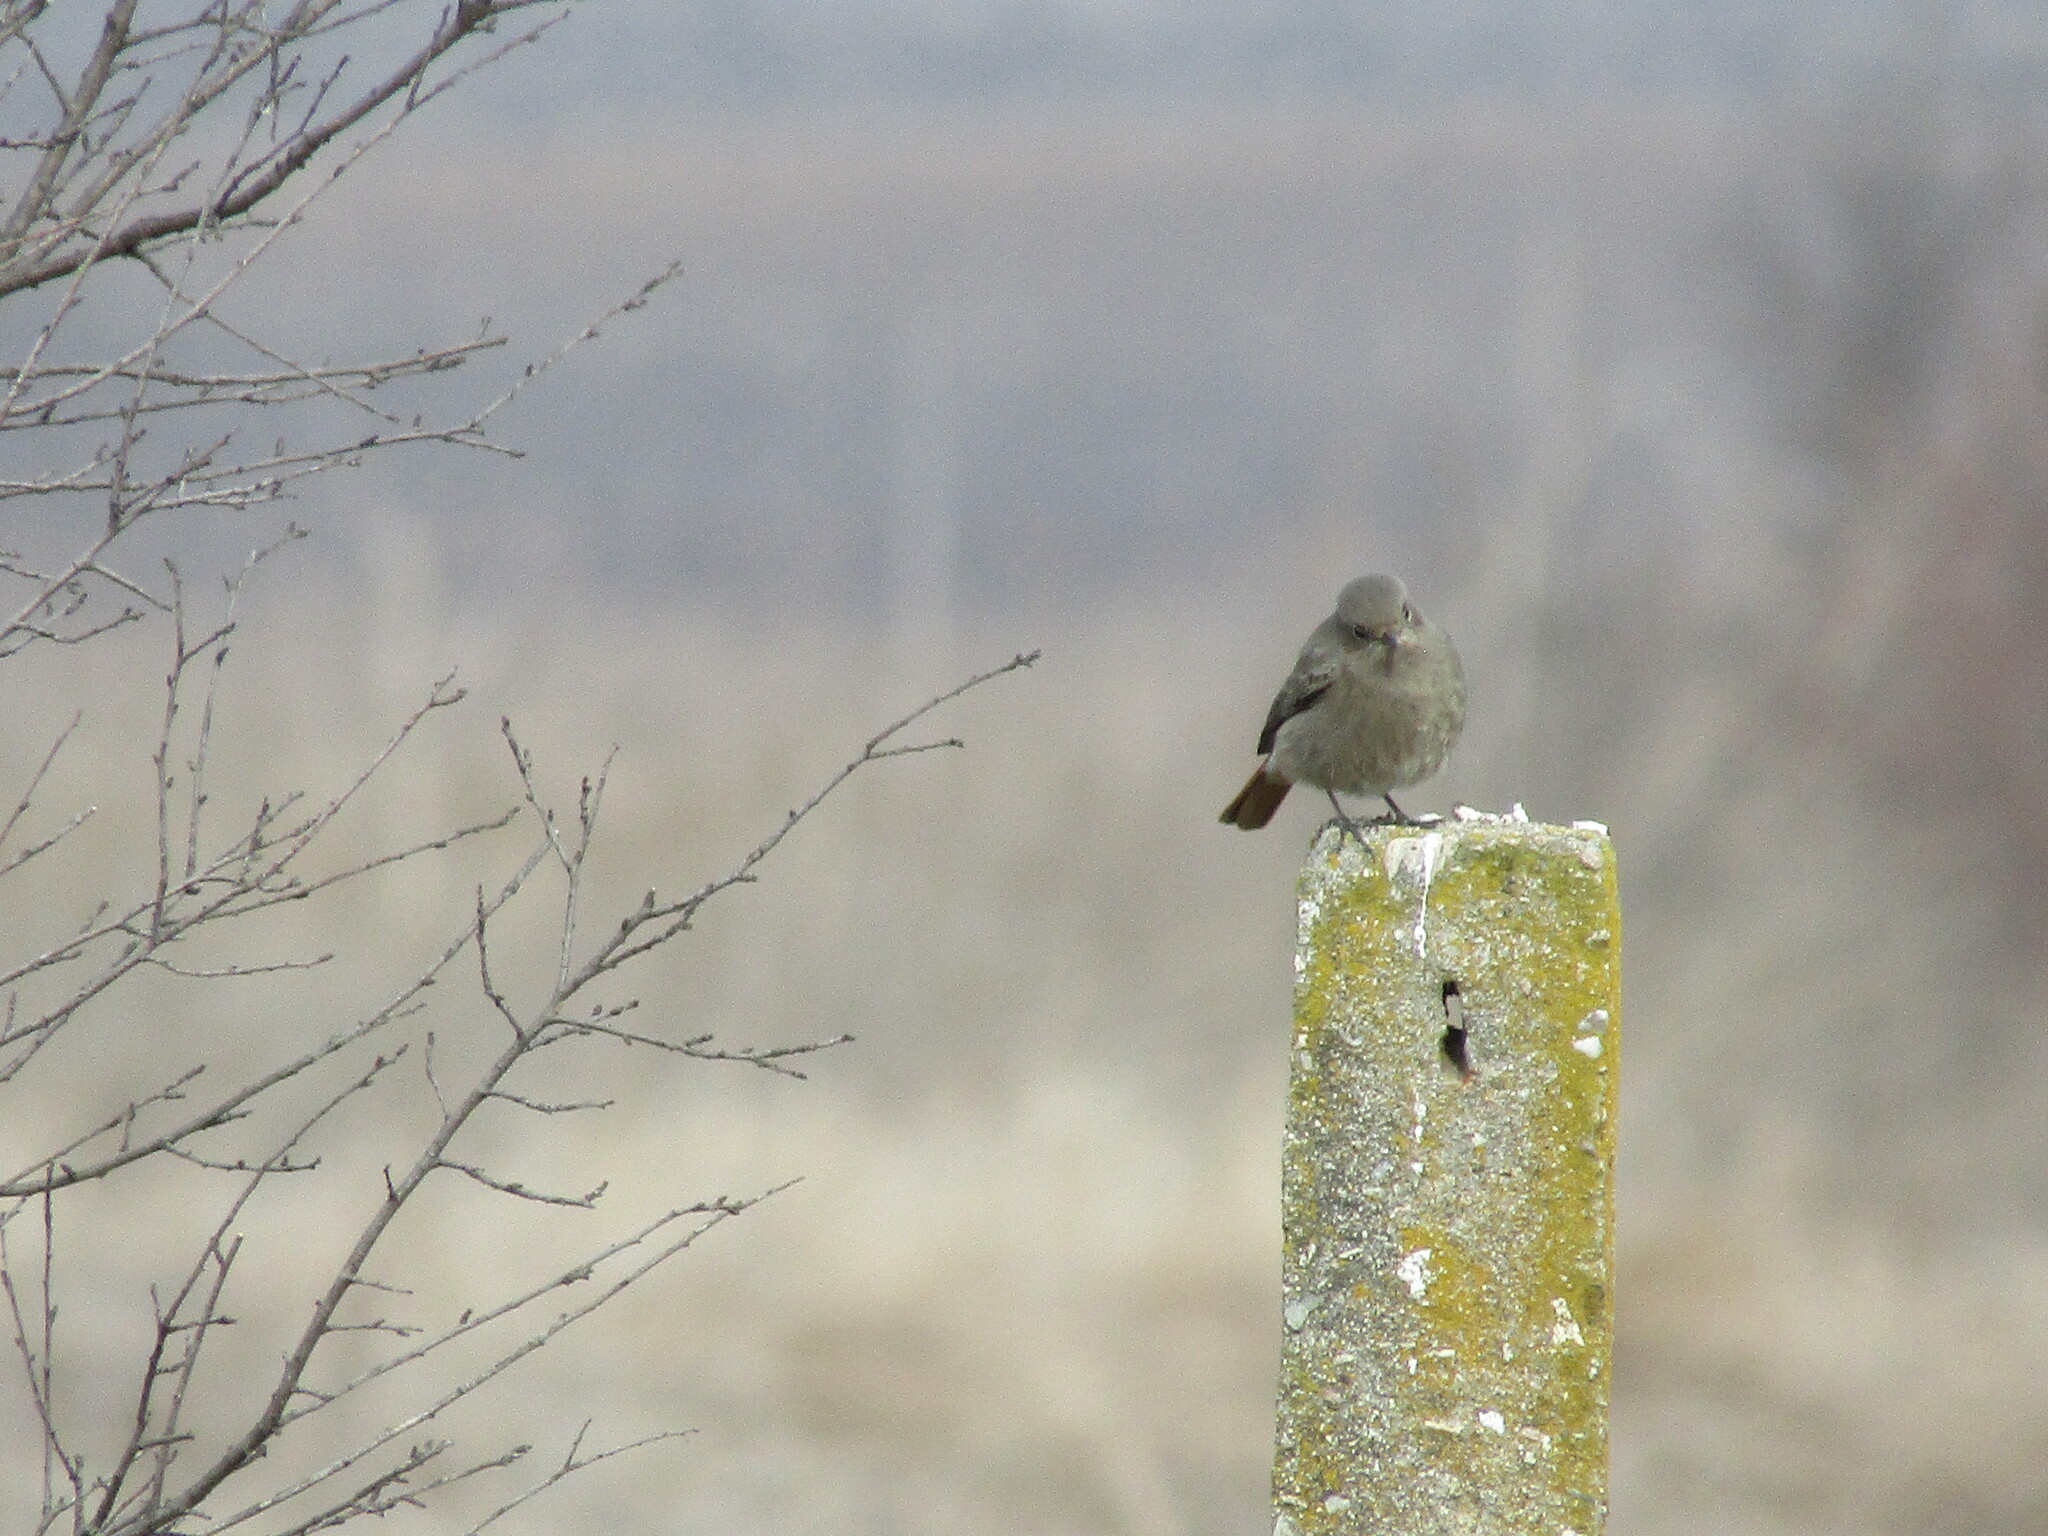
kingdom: Animalia
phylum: Chordata
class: Aves
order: Passeriformes
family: Muscicapidae
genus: Phoenicurus
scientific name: Phoenicurus ochruros
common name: Black redstart
